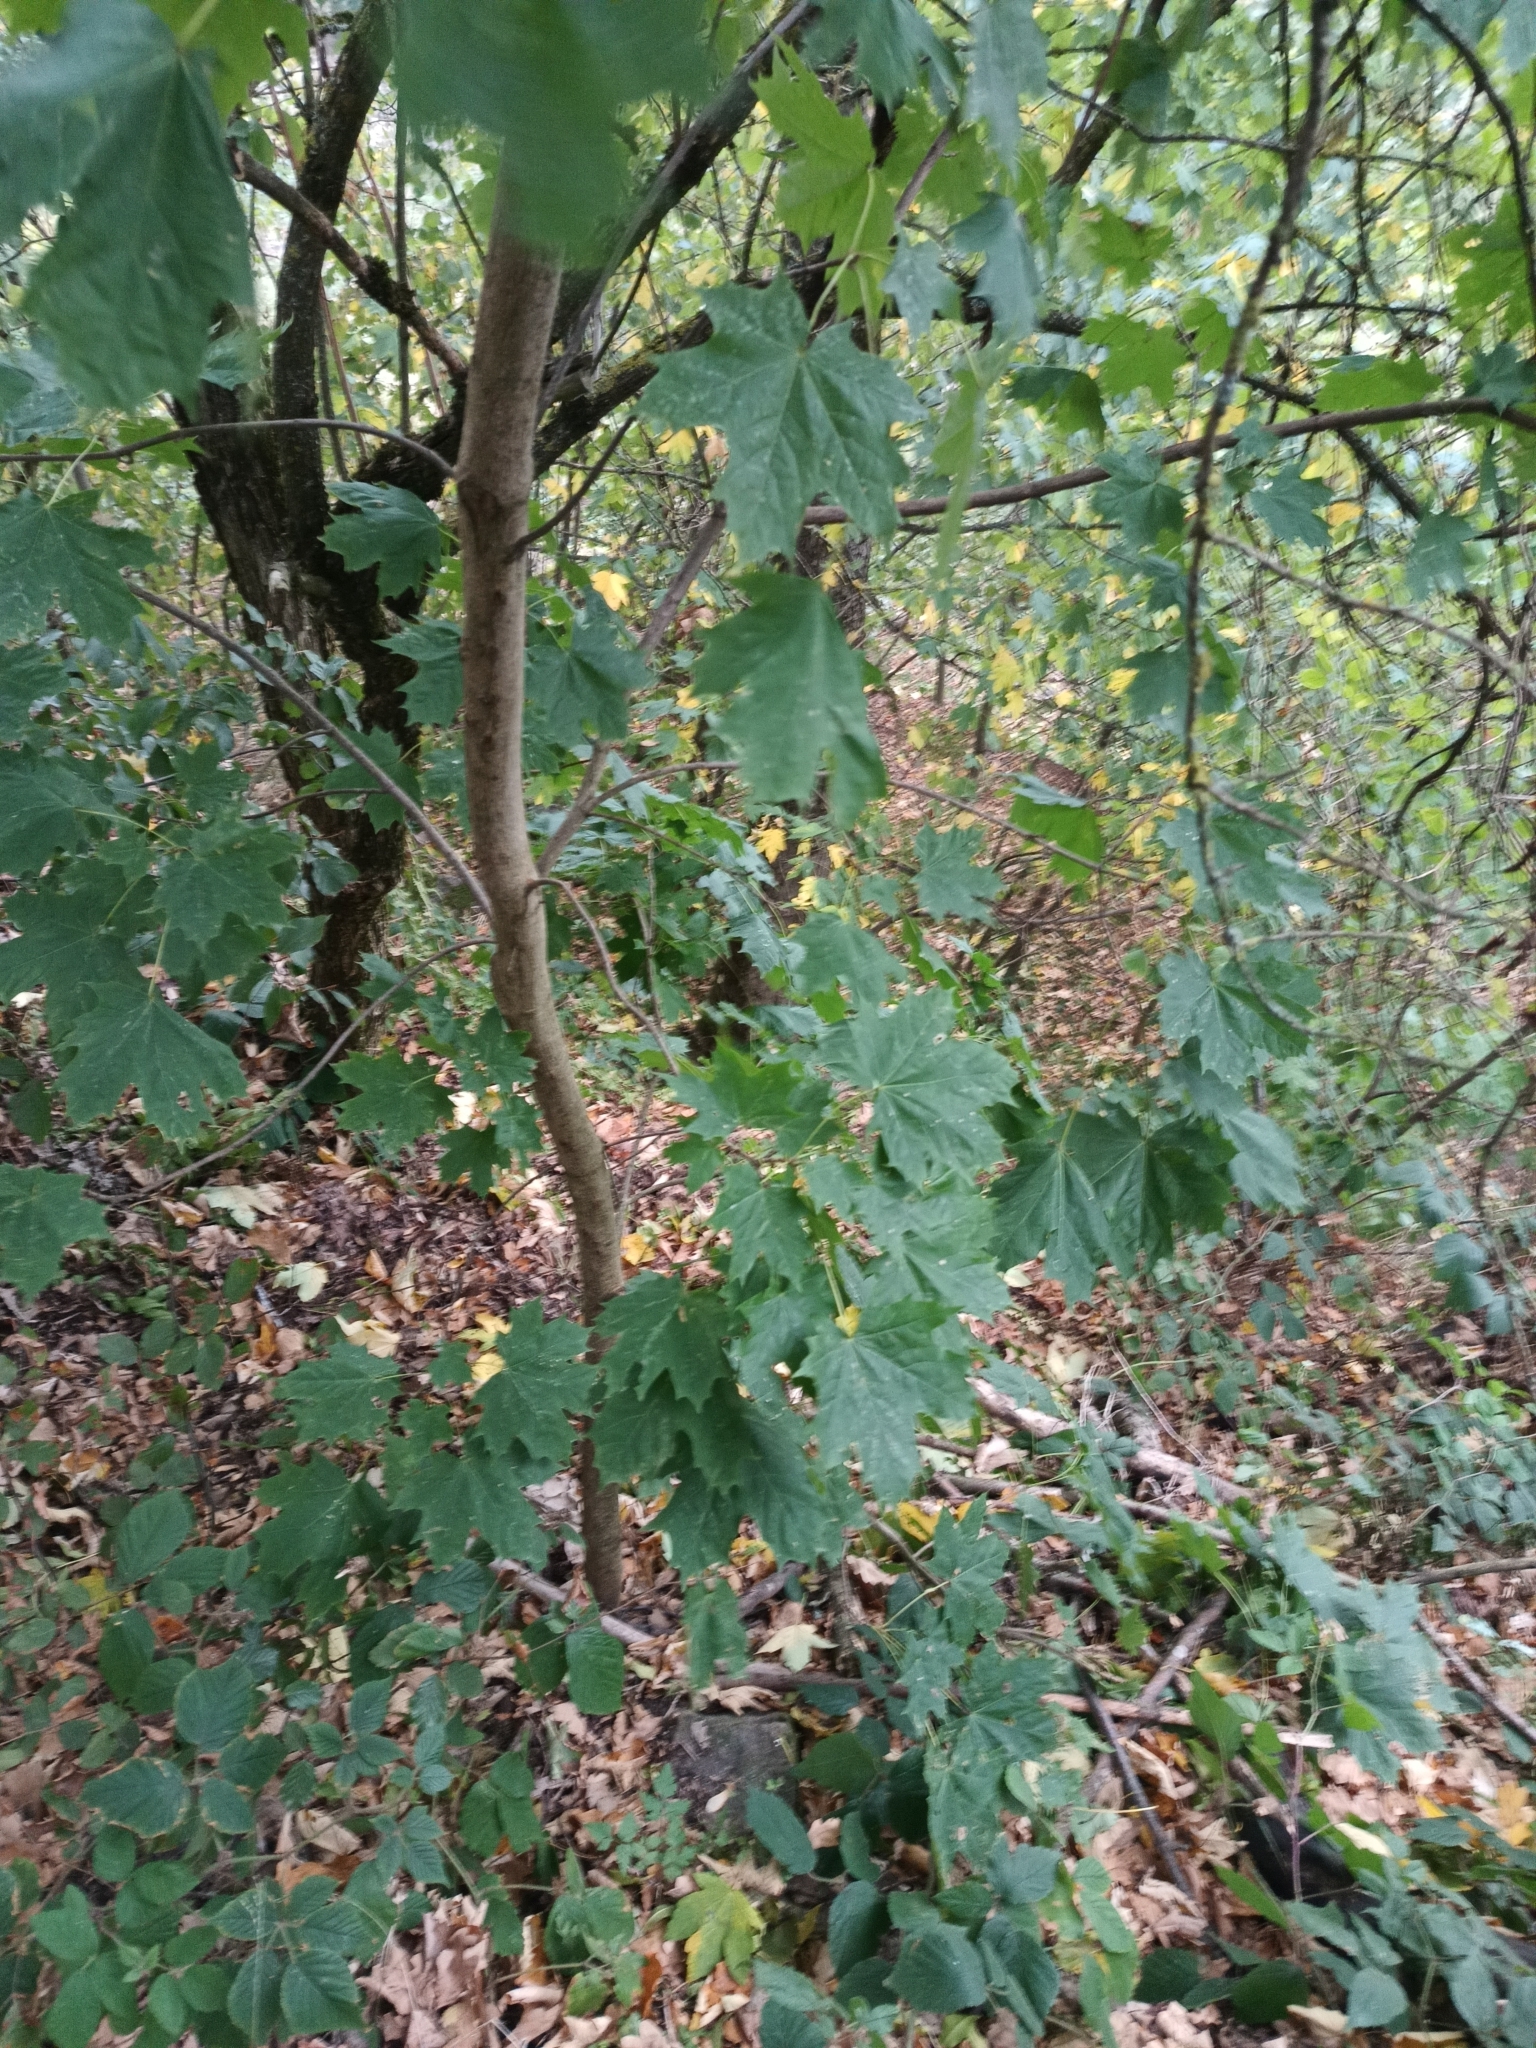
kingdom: Plantae
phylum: Tracheophyta
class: Magnoliopsida
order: Sapindales
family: Sapindaceae
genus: Acer
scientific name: Acer platanoides
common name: Norway maple
